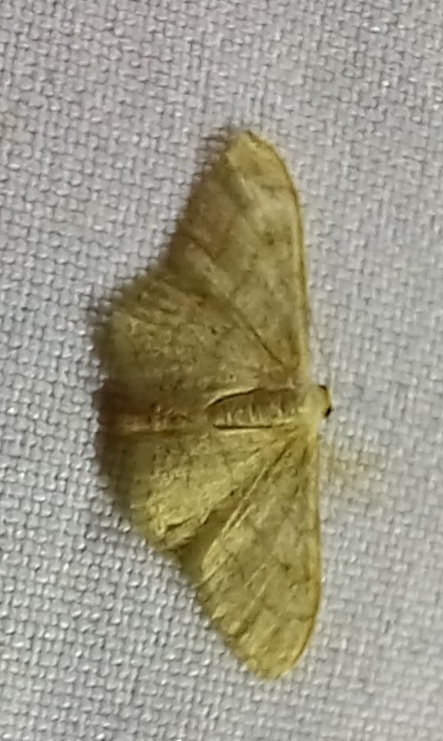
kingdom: Animalia
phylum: Arthropoda
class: Insecta
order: Lepidoptera
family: Geometridae
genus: Idaea
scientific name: Idaea aversata
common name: Riband wave
